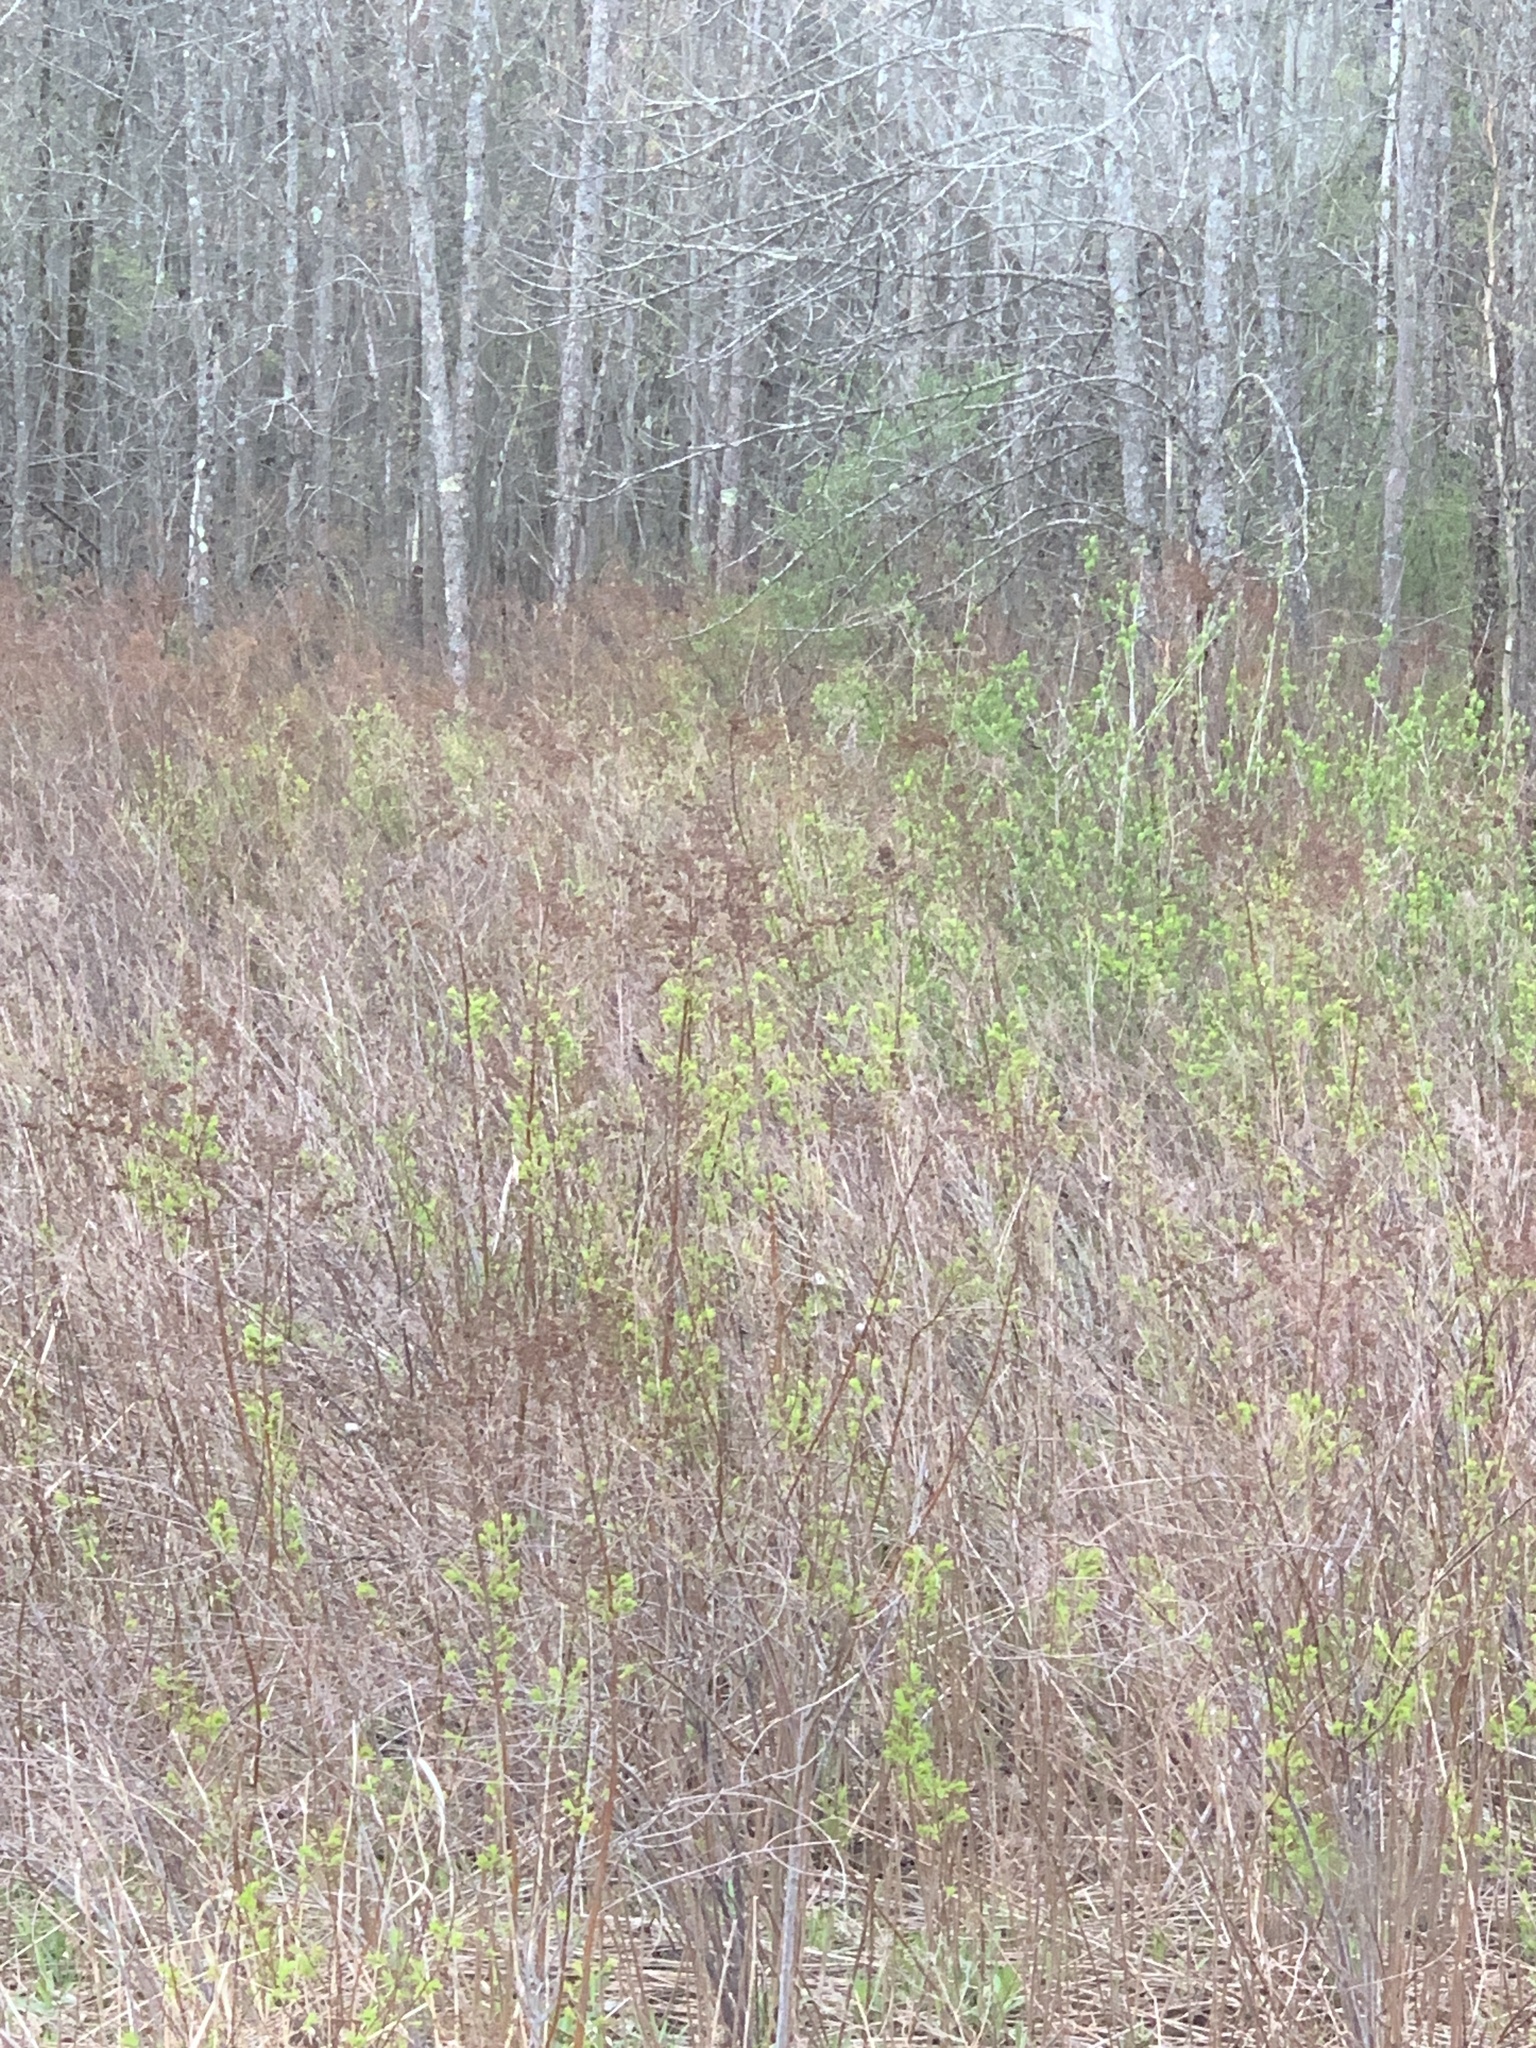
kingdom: Plantae
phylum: Tracheophyta
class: Magnoliopsida
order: Rosales
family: Rosaceae
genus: Spiraea
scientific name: Spiraea alba
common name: Pale bridewort
